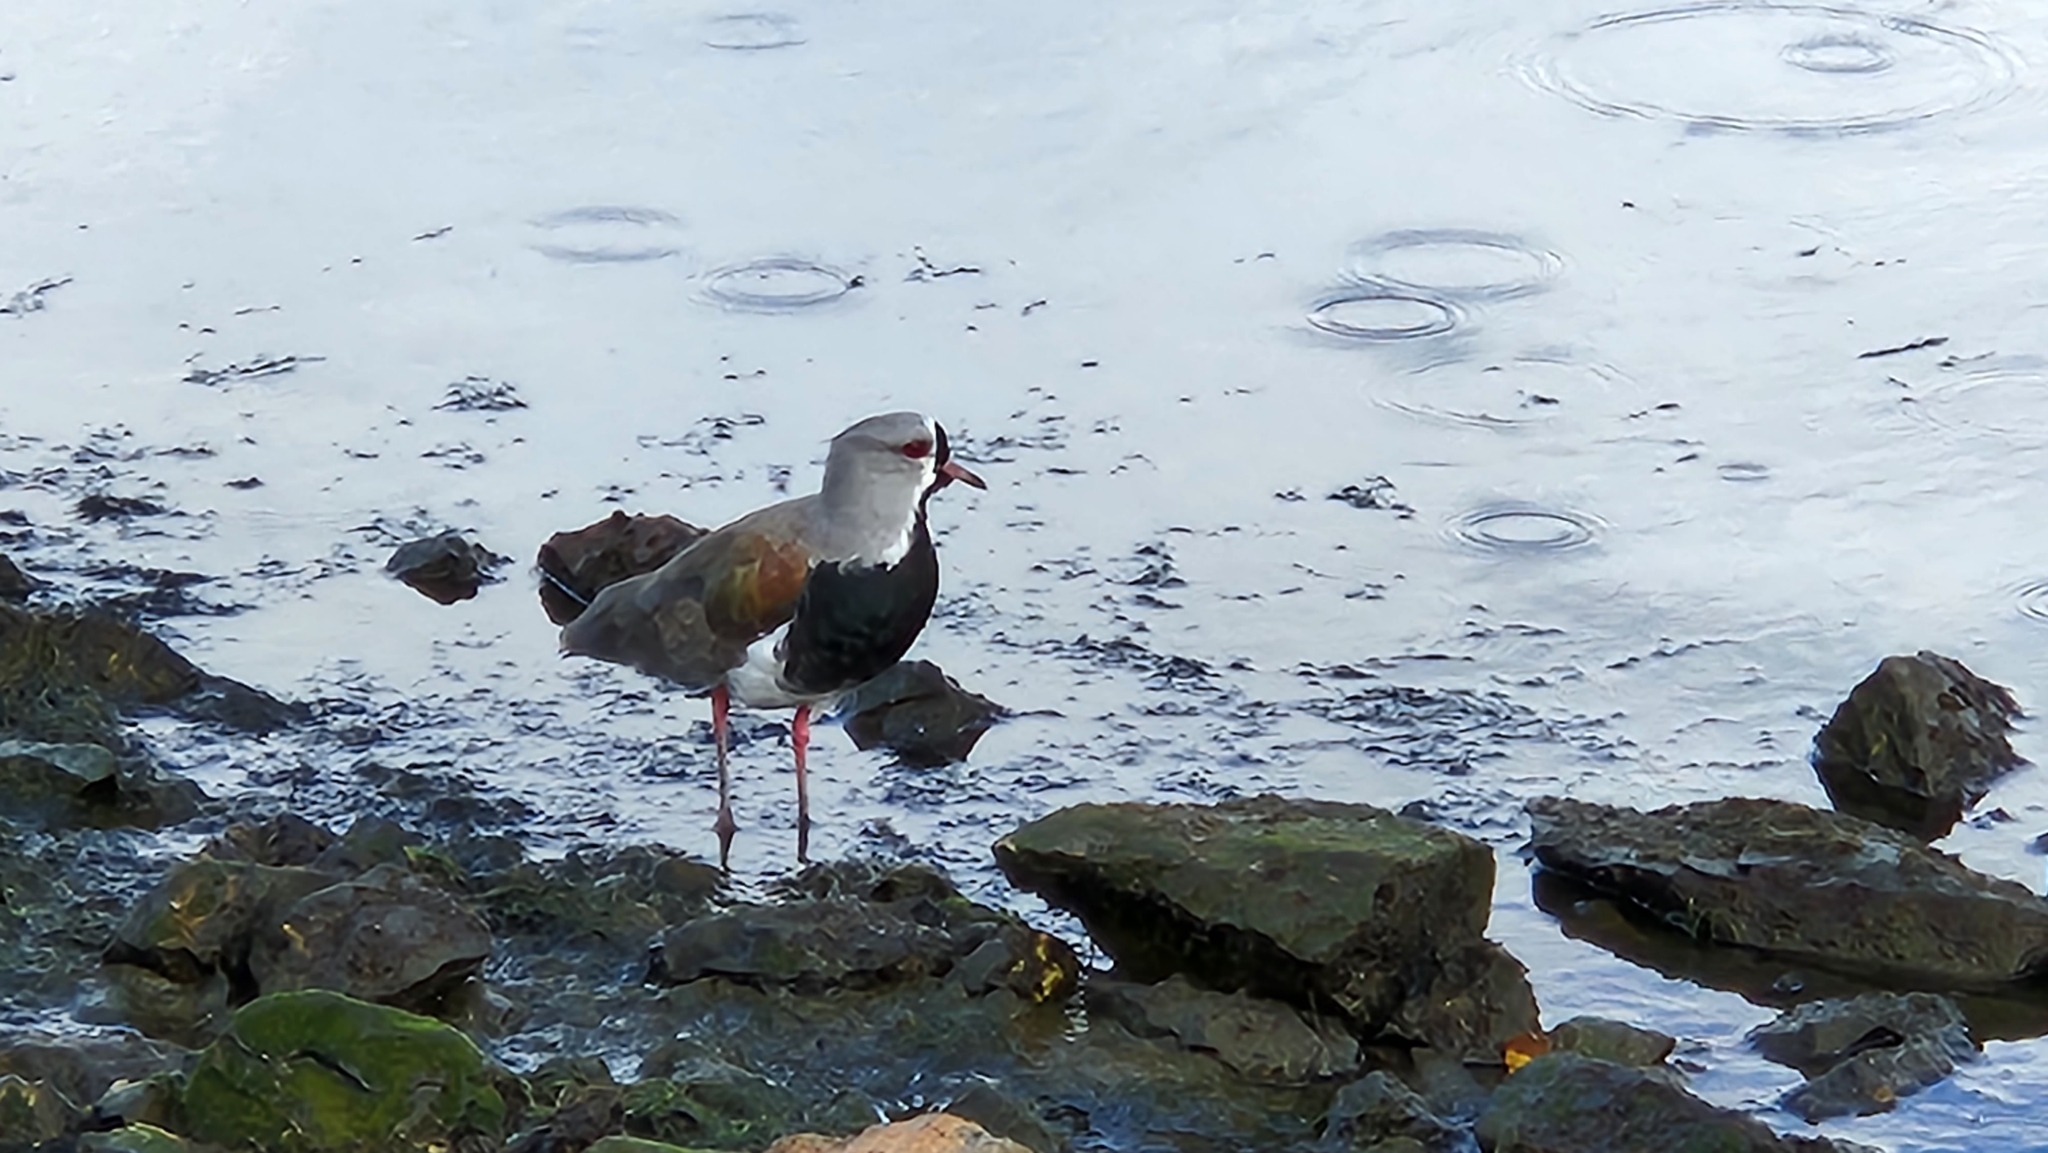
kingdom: Animalia
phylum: Chordata
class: Aves
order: Charadriiformes
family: Charadriidae
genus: Vanellus
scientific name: Vanellus chilensis
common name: Southern lapwing
